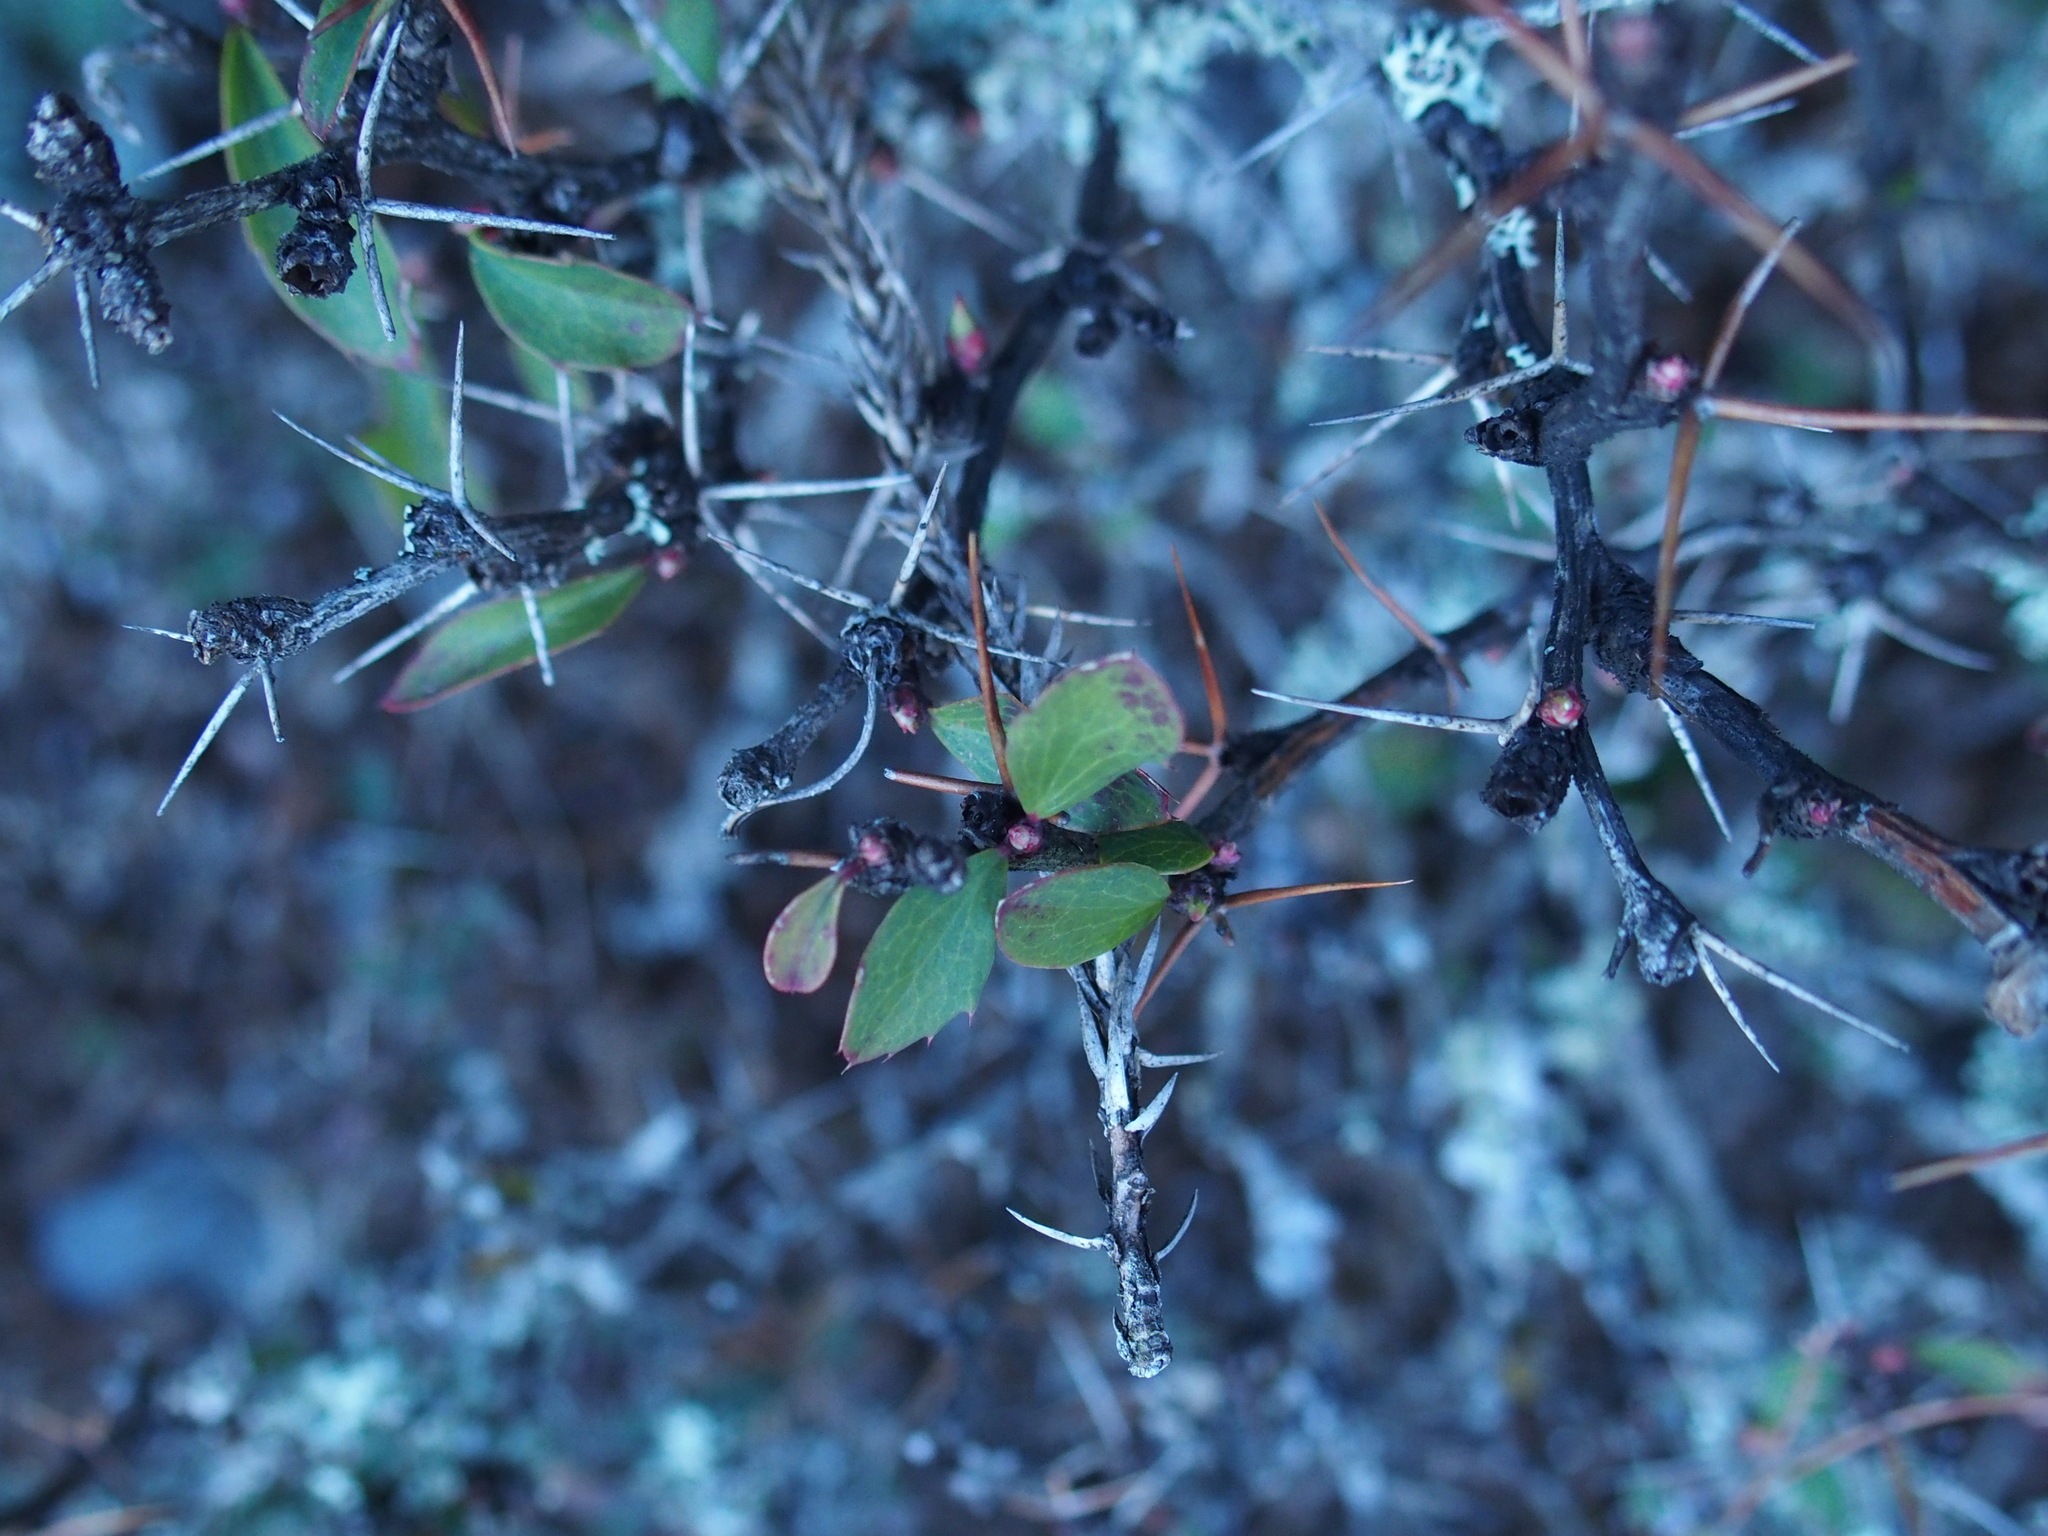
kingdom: Plantae
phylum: Tracheophyta
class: Magnoliopsida
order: Ranunculales
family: Berberidaceae
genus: Berberis
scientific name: Berberis morrisonensis
